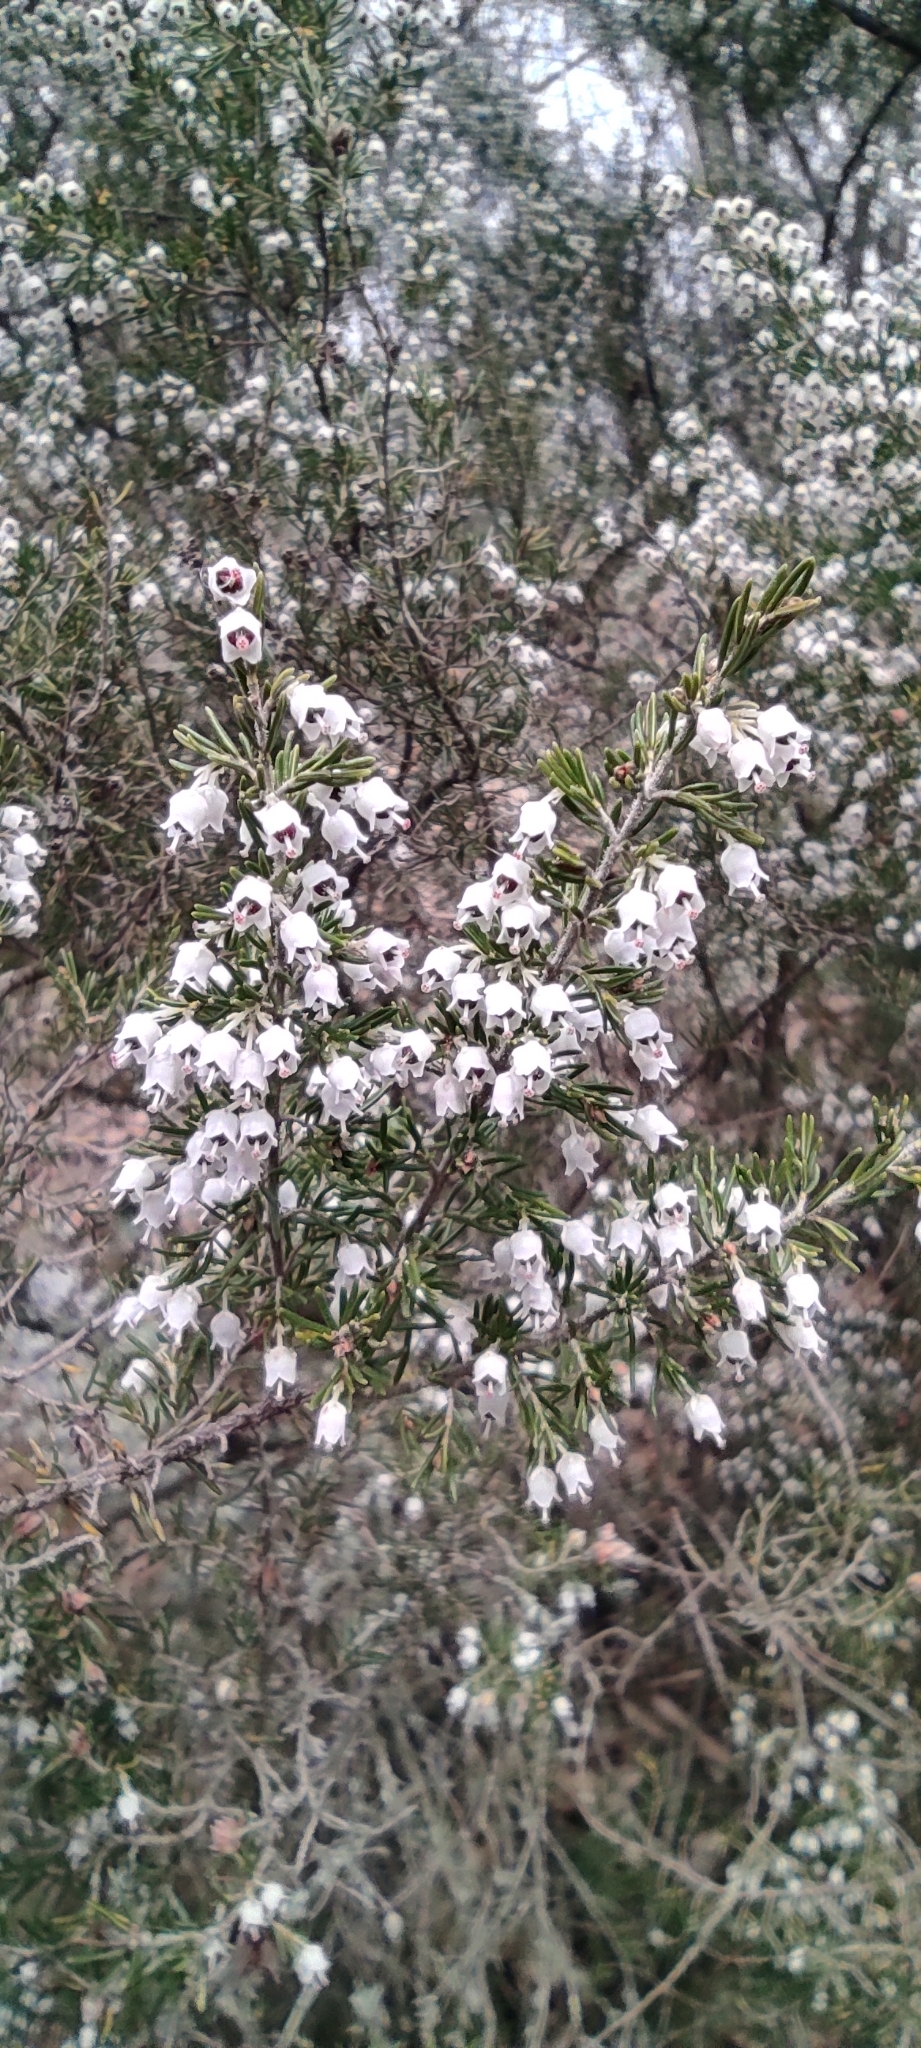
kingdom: Plantae
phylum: Tracheophyta
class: Magnoliopsida
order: Ericales
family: Ericaceae
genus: Erica
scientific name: Erica arborea
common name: Tree heath
